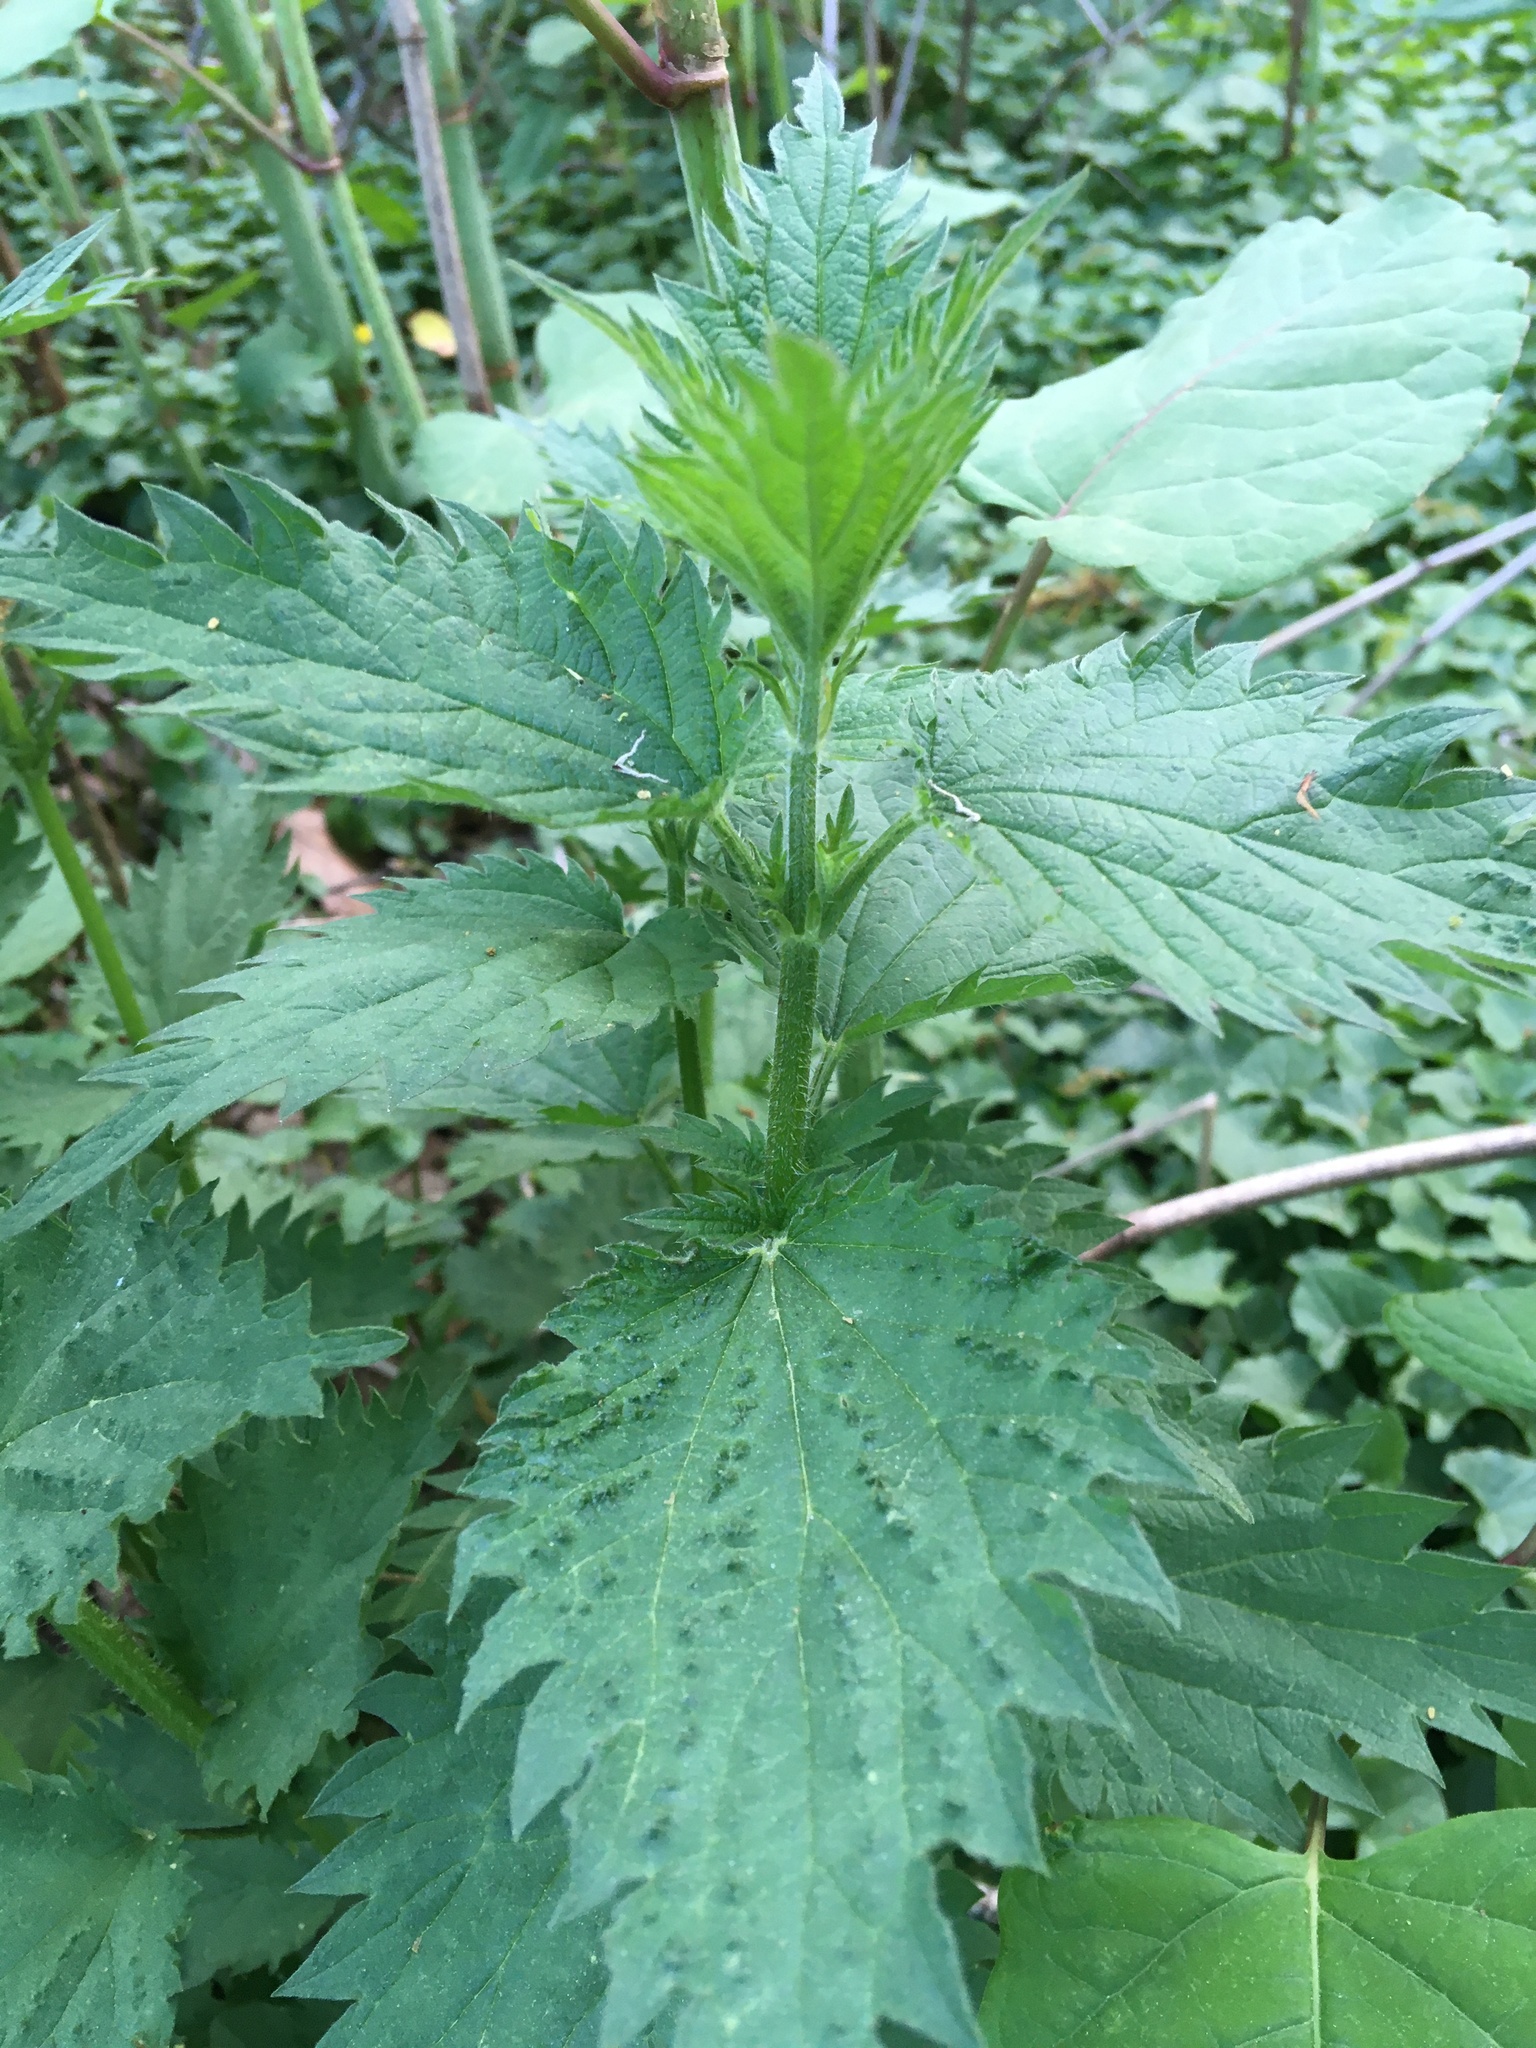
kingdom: Plantae
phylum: Tracheophyta
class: Magnoliopsida
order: Rosales
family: Urticaceae
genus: Urtica
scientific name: Urtica dioica
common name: Common nettle
